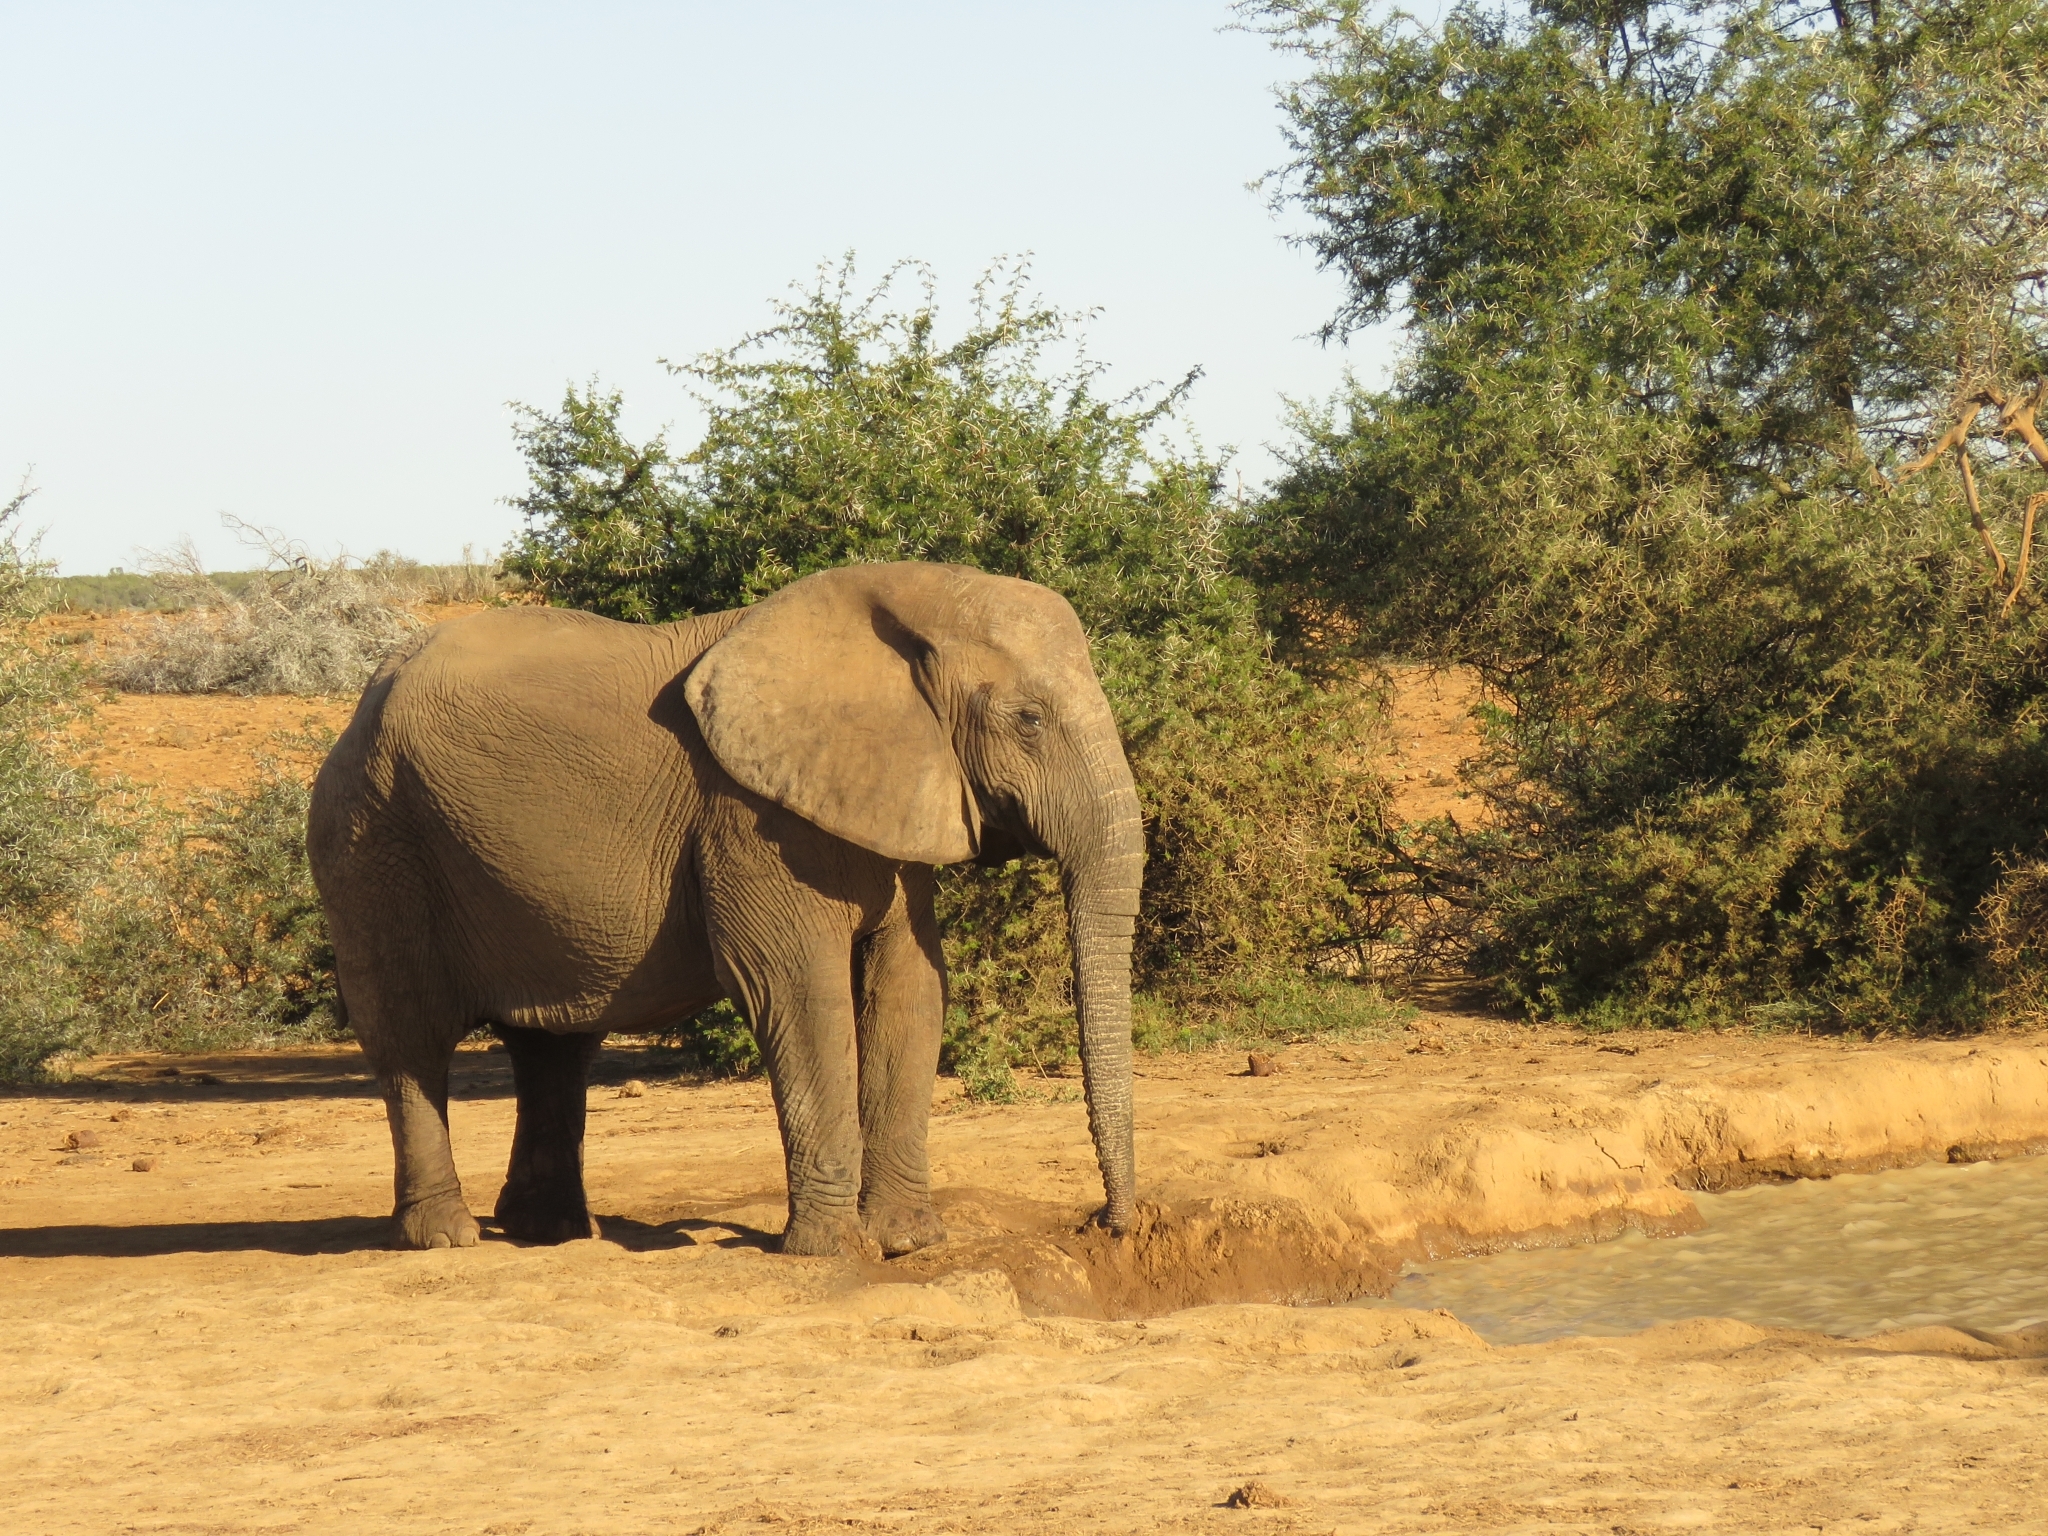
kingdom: Animalia
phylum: Chordata
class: Mammalia
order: Proboscidea
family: Elephantidae
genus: Loxodonta
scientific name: Loxodonta africana
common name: African elephant
